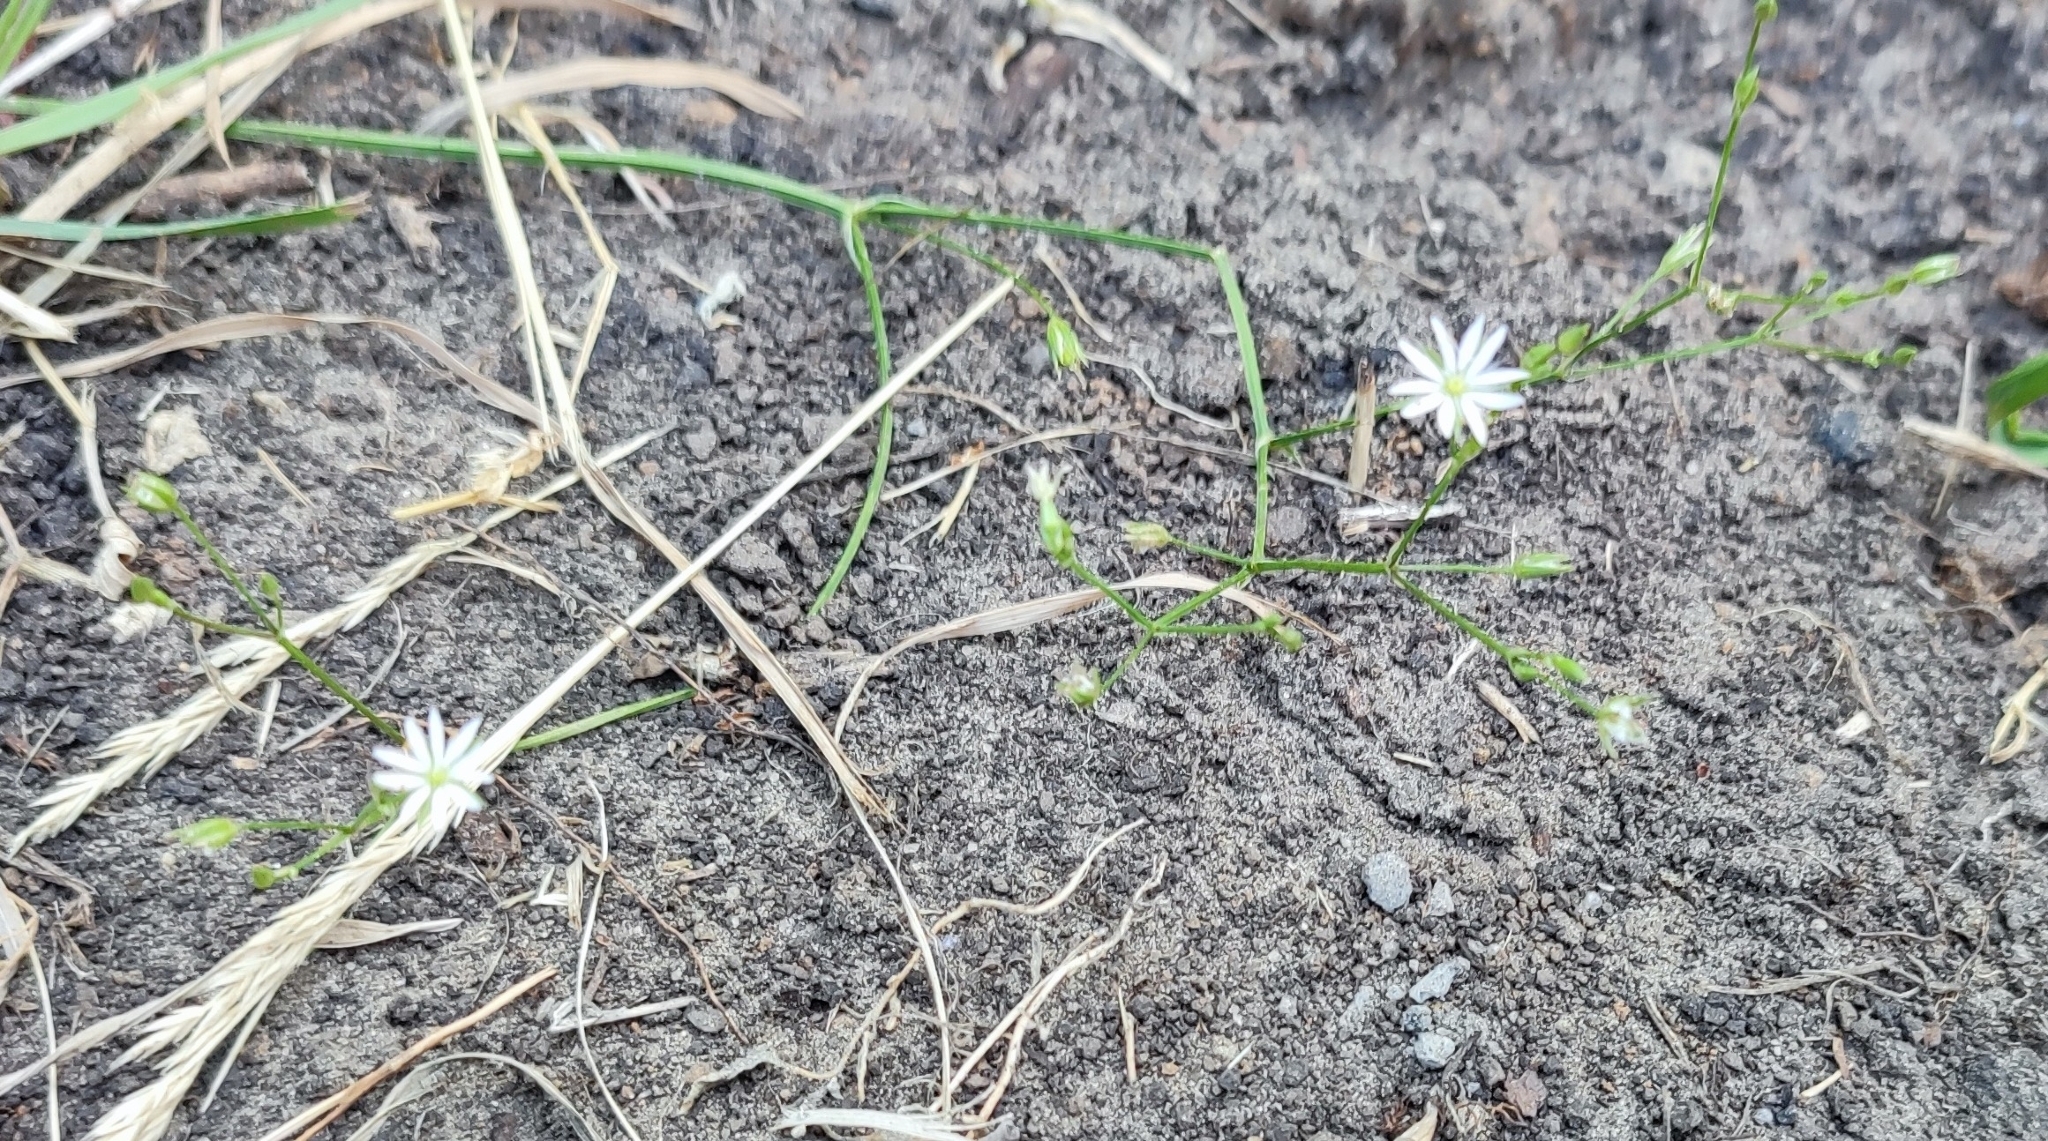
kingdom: Plantae
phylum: Tracheophyta
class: Magnoliopsida
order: Caryophyllales
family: Caryophyllaceae
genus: Stellaria
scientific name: Stellaria graminea
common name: Grass-like starwort
